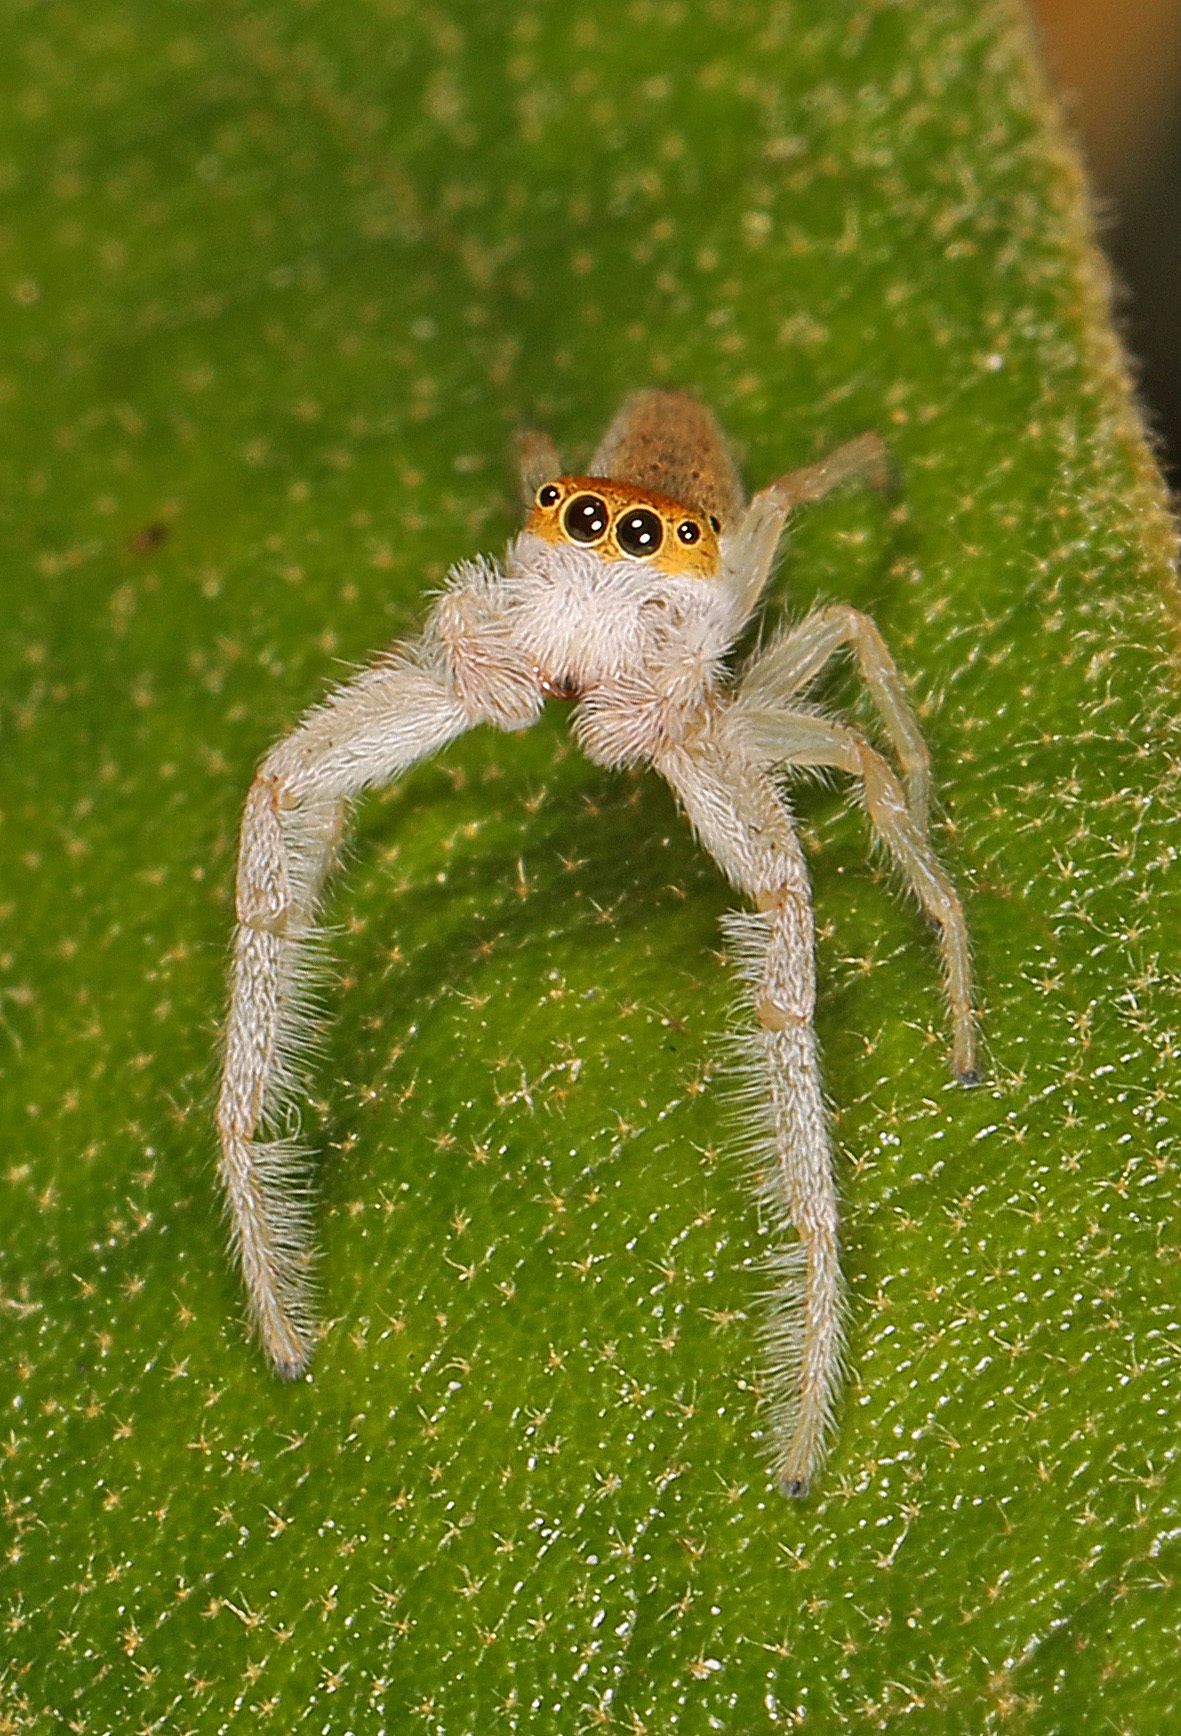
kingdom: Animalia
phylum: Arthropoda
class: Arachnida
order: Araneae
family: Salticidae
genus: Hentzia
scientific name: Hentzia mitrata
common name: White-jawed jumping spider
